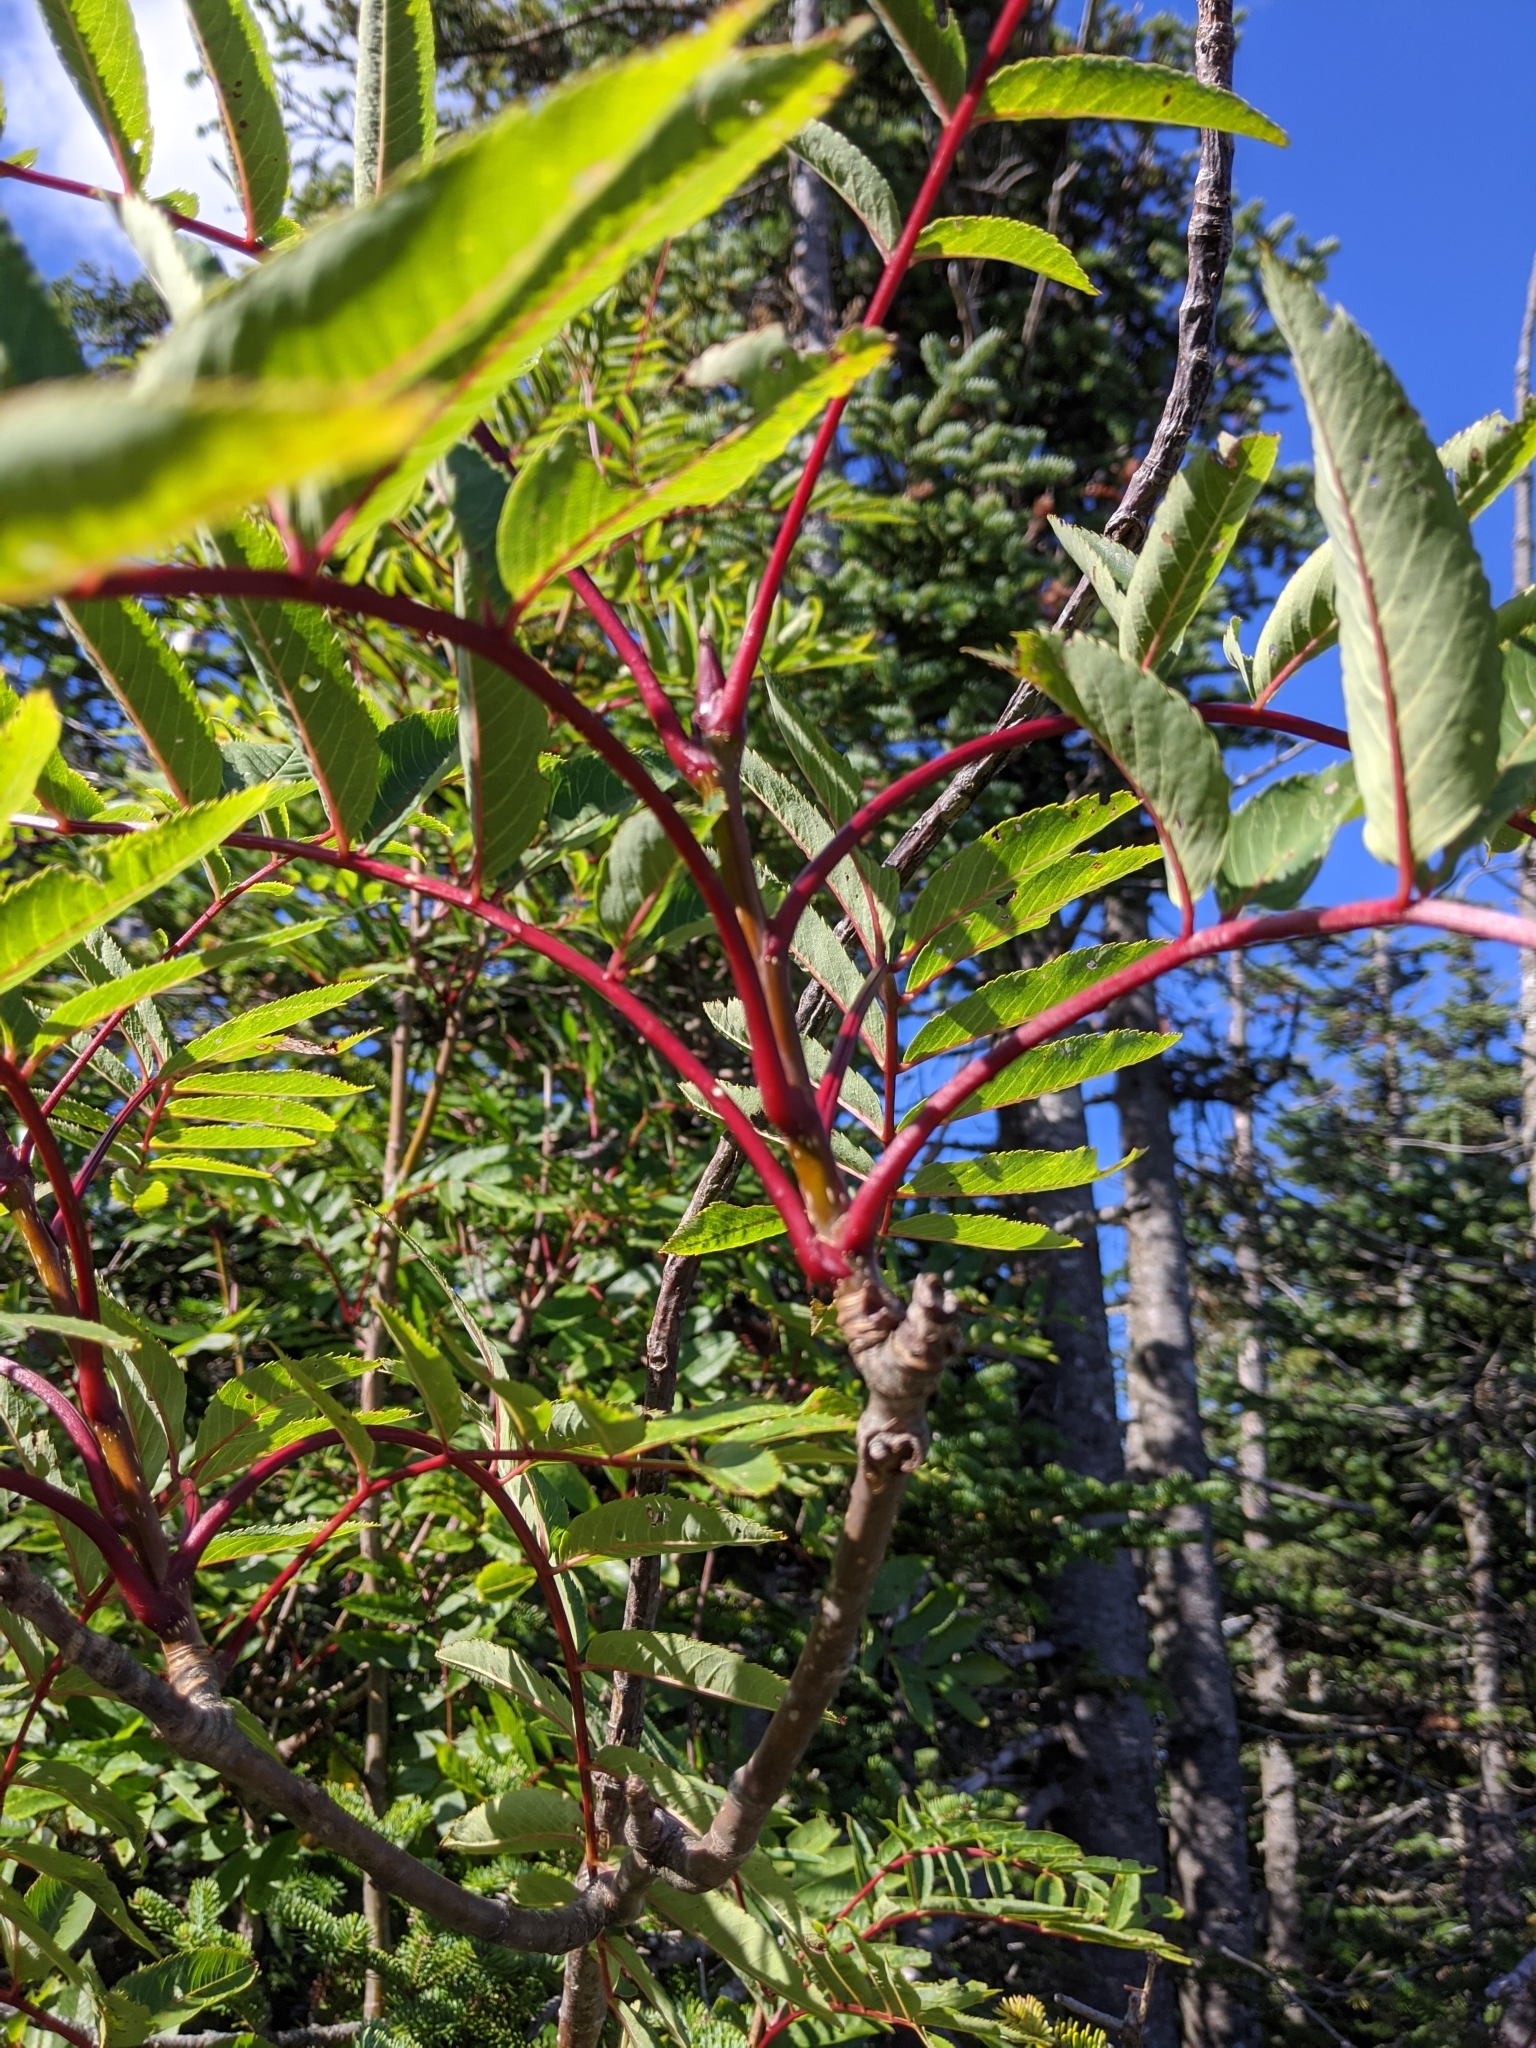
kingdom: Plantae
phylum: Tracheophyta
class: Magnoliopsida
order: Rosales
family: Rosaceae
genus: Sorbus
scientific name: Sorbus americana
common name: American mountain-ash
